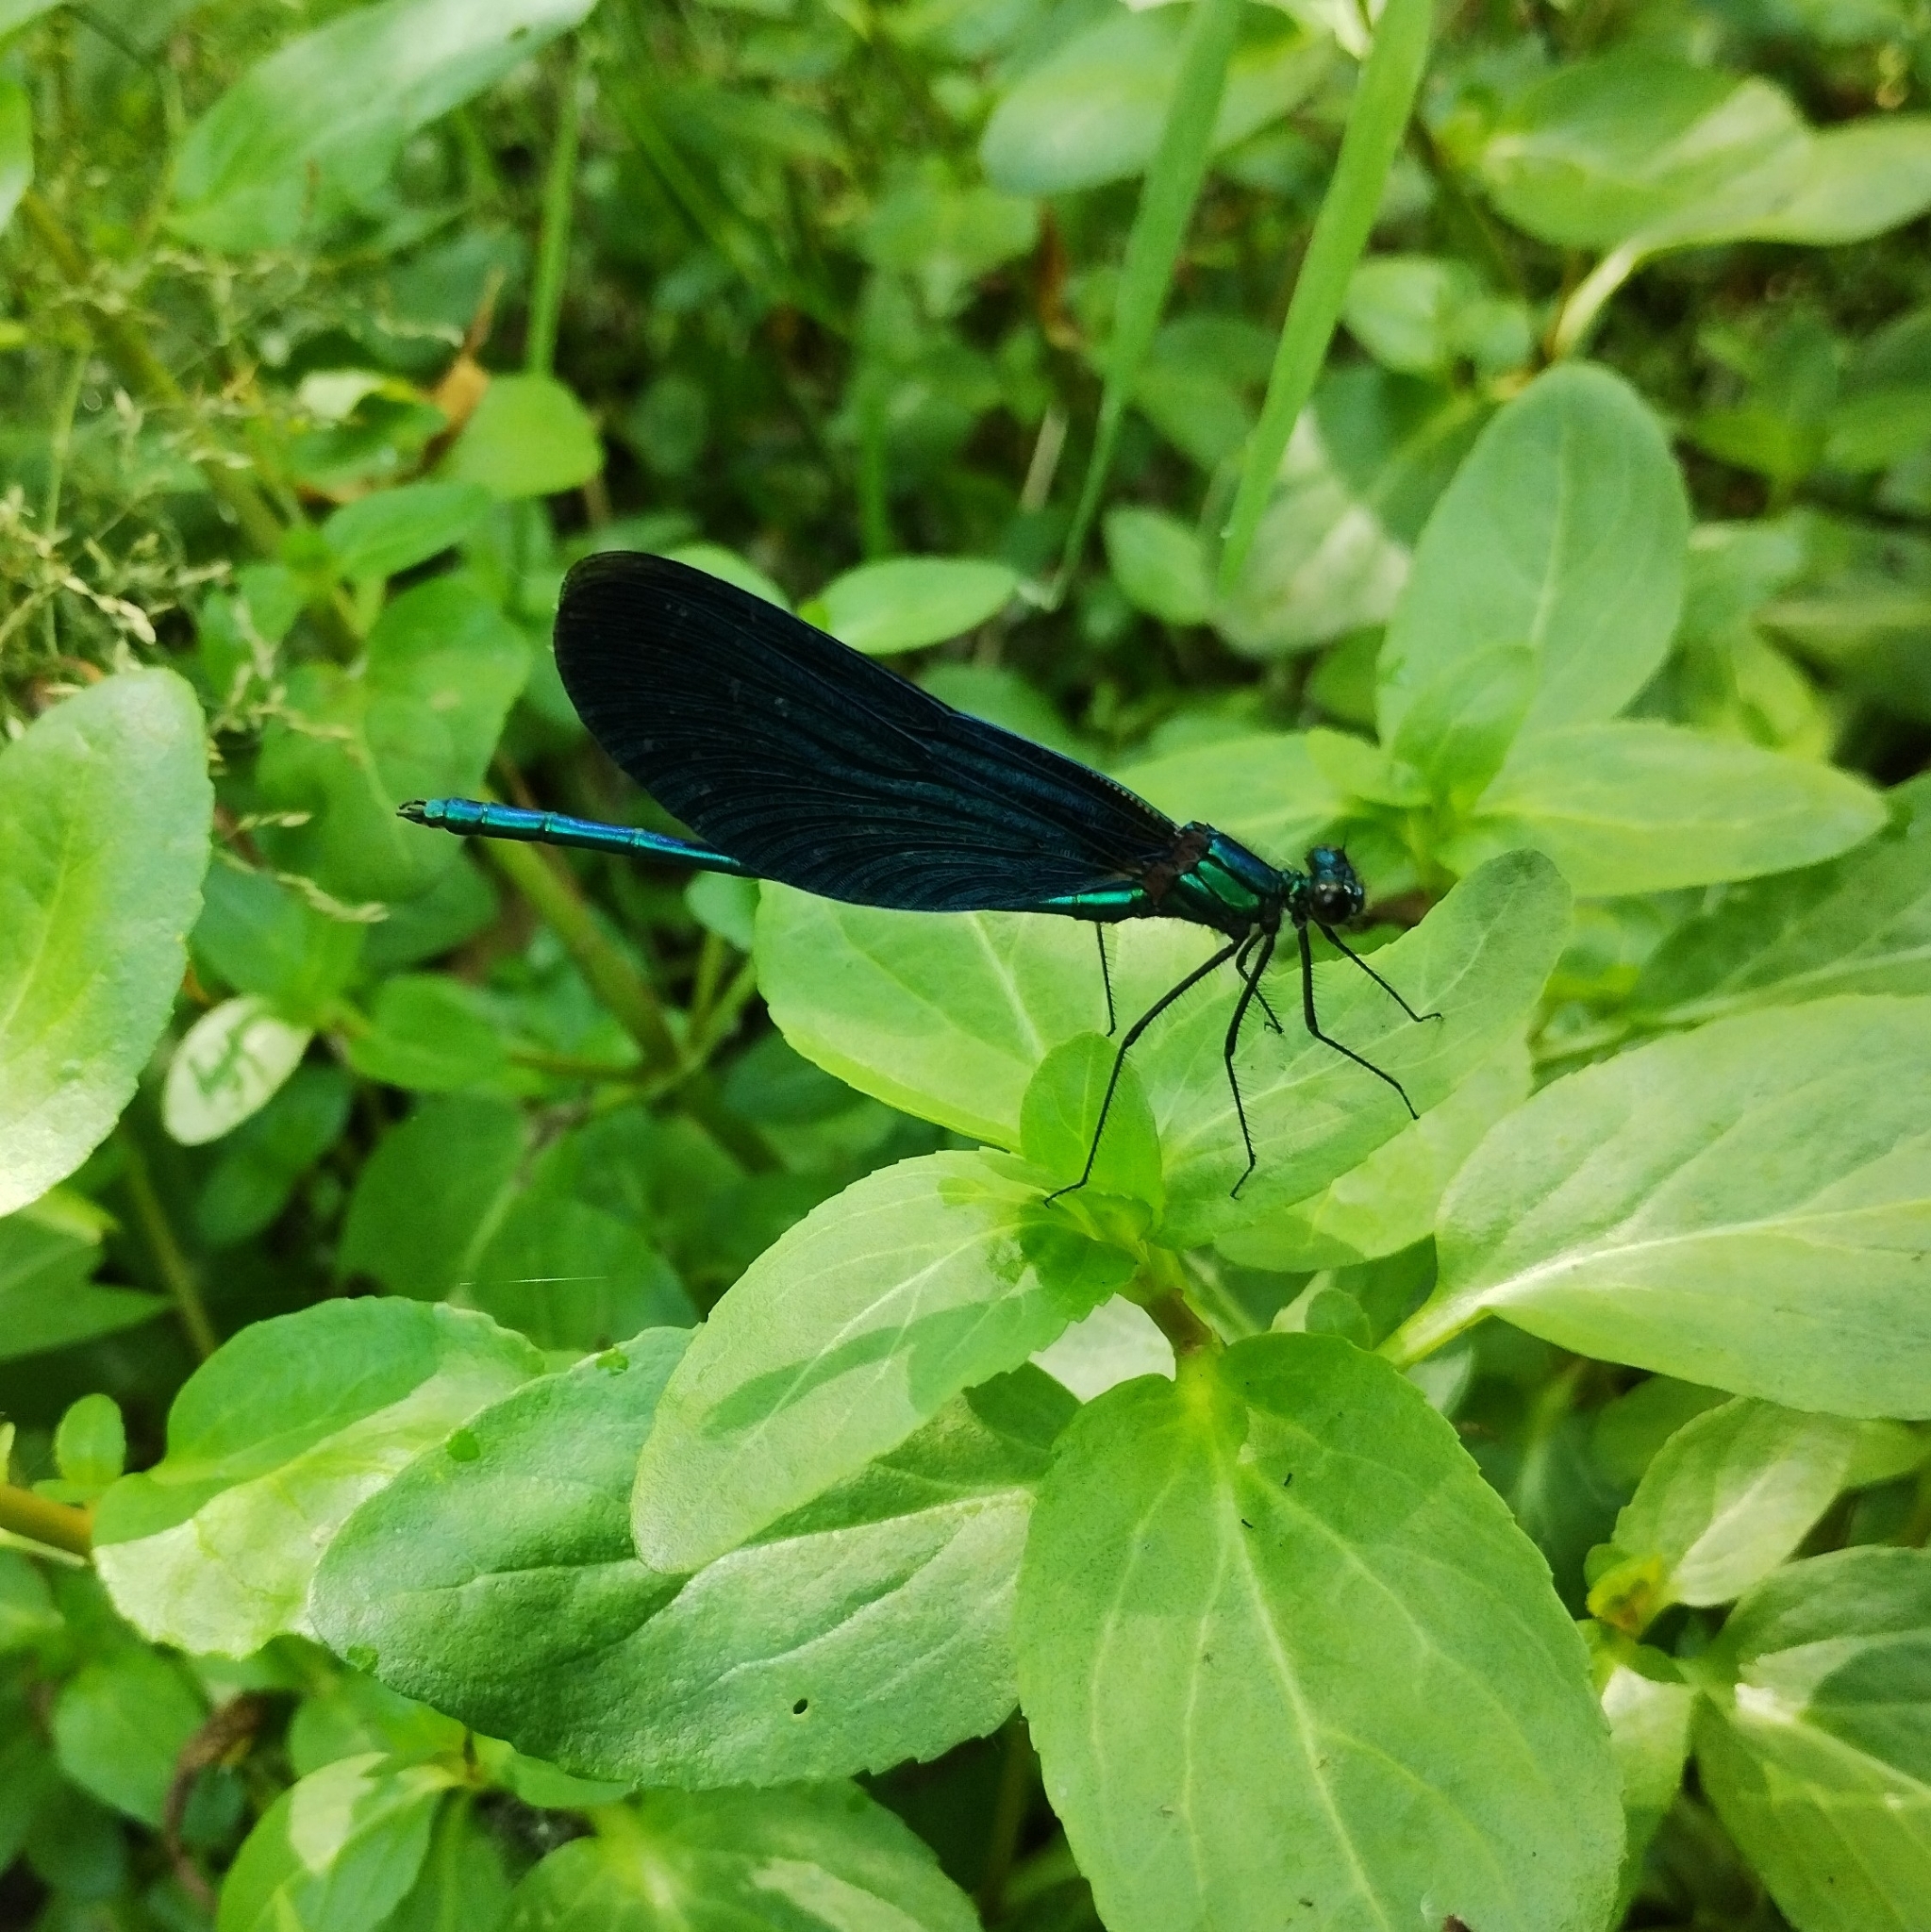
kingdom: Animalia
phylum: Arthropoda
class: Insecta
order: Odonata
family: Calopterygidae
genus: Calopteryx
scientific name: Calopteryx virgo
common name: Beautiful demoiselle
